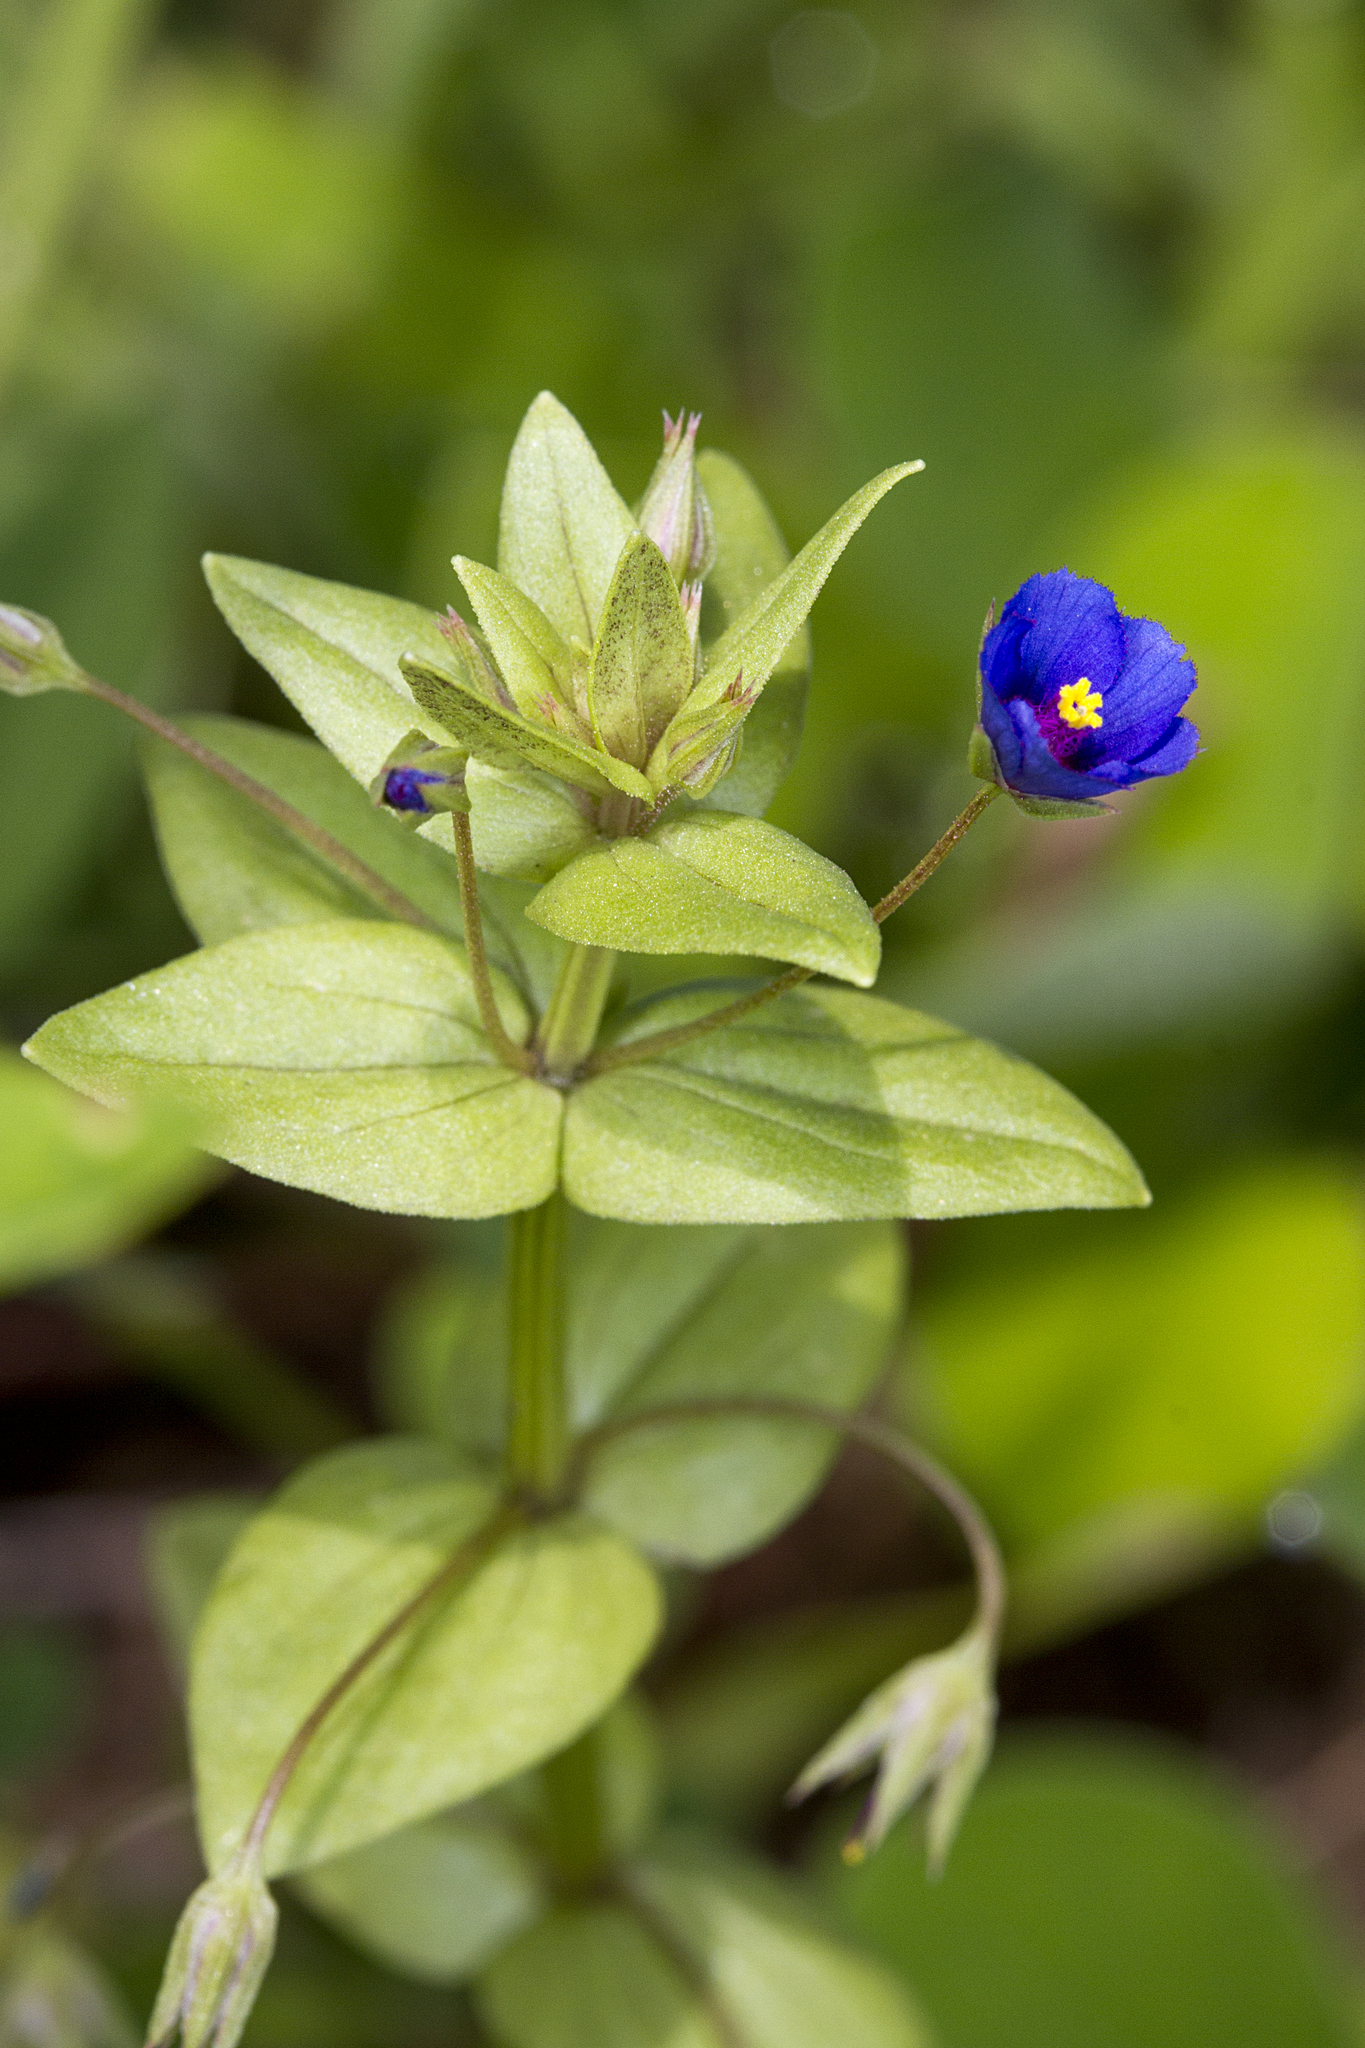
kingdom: Plantae
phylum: Tracheophyta
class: Magnoliopsida
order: Ericales
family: Primulaceae
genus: Lysimachia
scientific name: Lysimachia loeflingii
